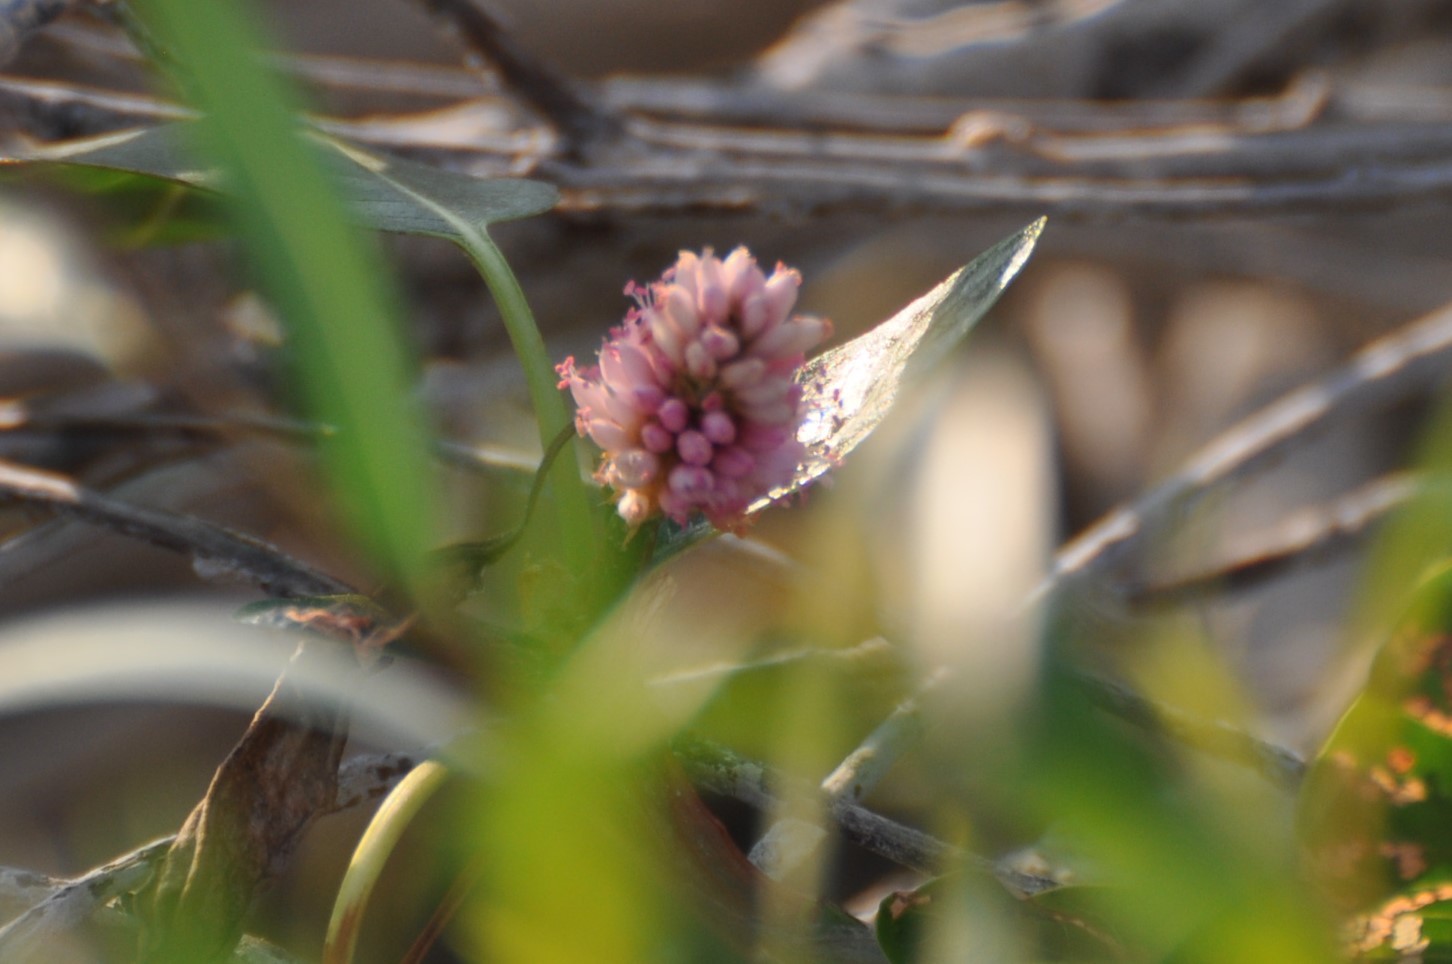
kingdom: Plantae
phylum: Tracheophyta
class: Magnoliopsida
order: Caryophyllales
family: Polygonaceae
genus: Persicaria
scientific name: Persicaria amphibia
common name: Amphibious bistort
